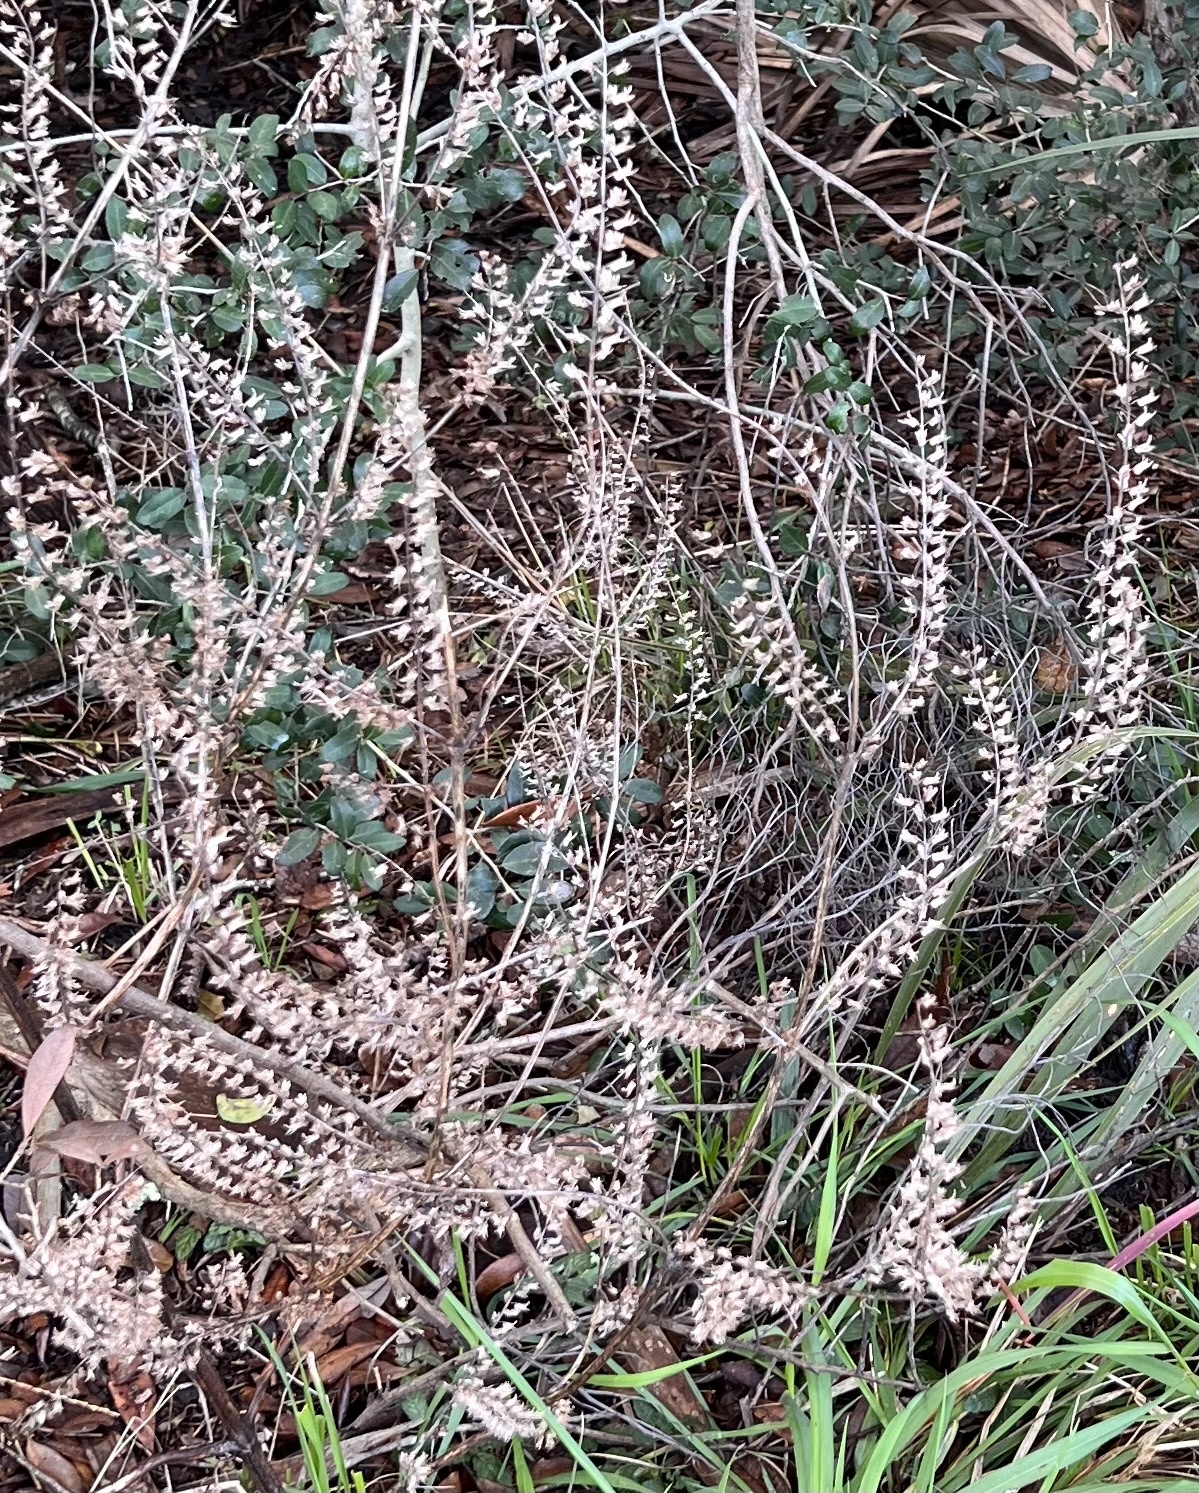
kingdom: Plantae
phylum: Tracheophyta
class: Magnoliopsida
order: Lamiales
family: Lamiaceae
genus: Perilla
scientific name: Perilla frutescens
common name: Perilla
